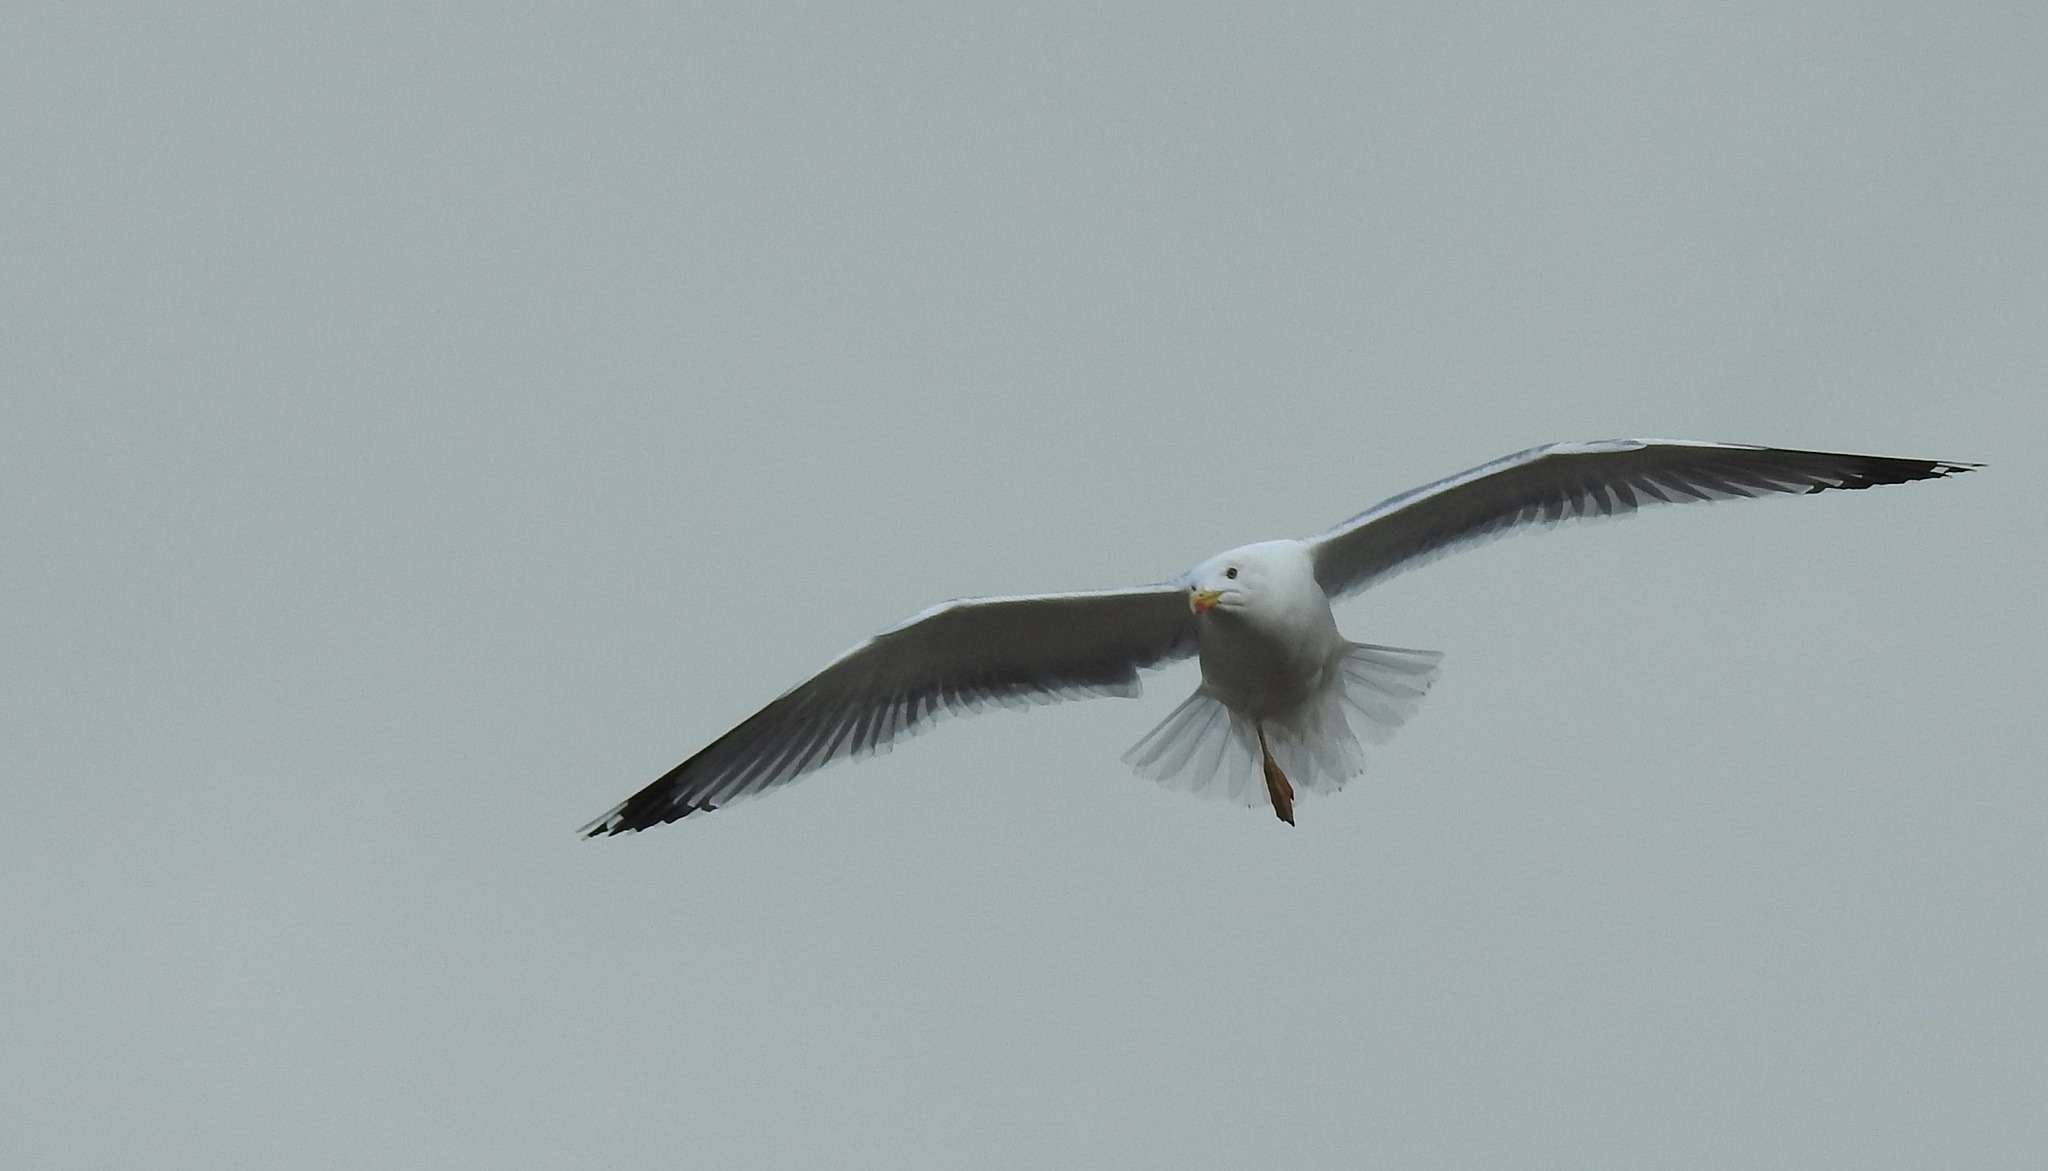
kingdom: Animalia
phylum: Chordata
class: Aves
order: Charadriiformes
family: Laridae
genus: Larus
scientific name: Larus michahellis
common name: Yellow-legged gull
